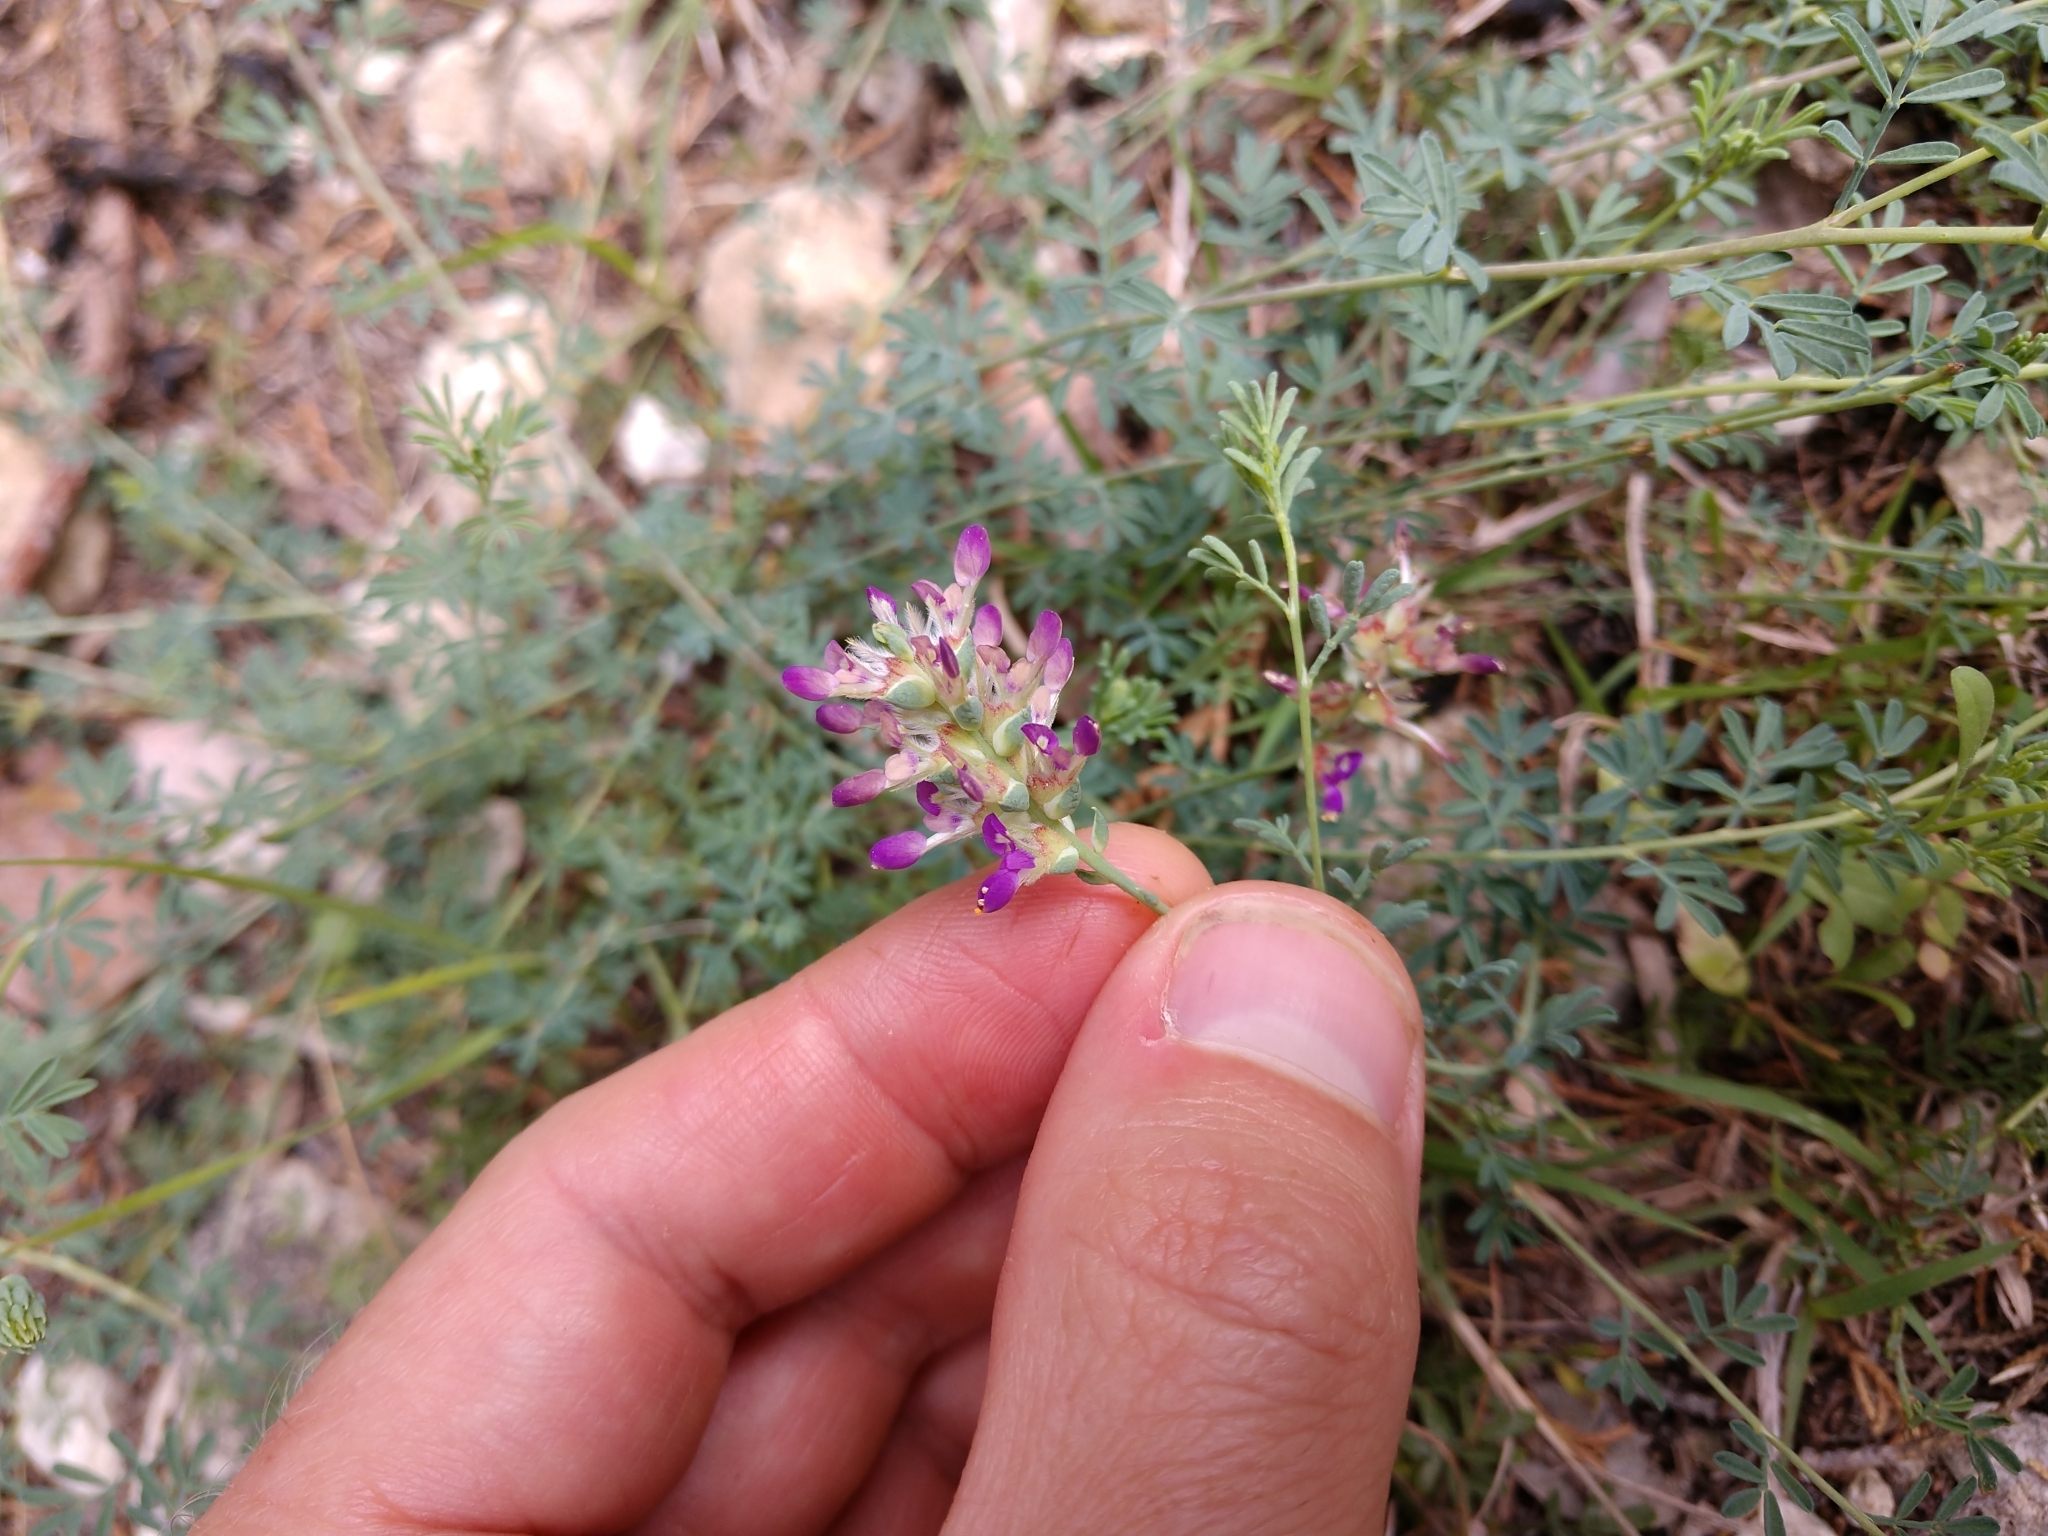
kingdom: Plantae
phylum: Tracheophyta
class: Magnoliopsida
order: Fabales
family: Fabaceae
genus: Dalea
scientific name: Dalea pogonathera
